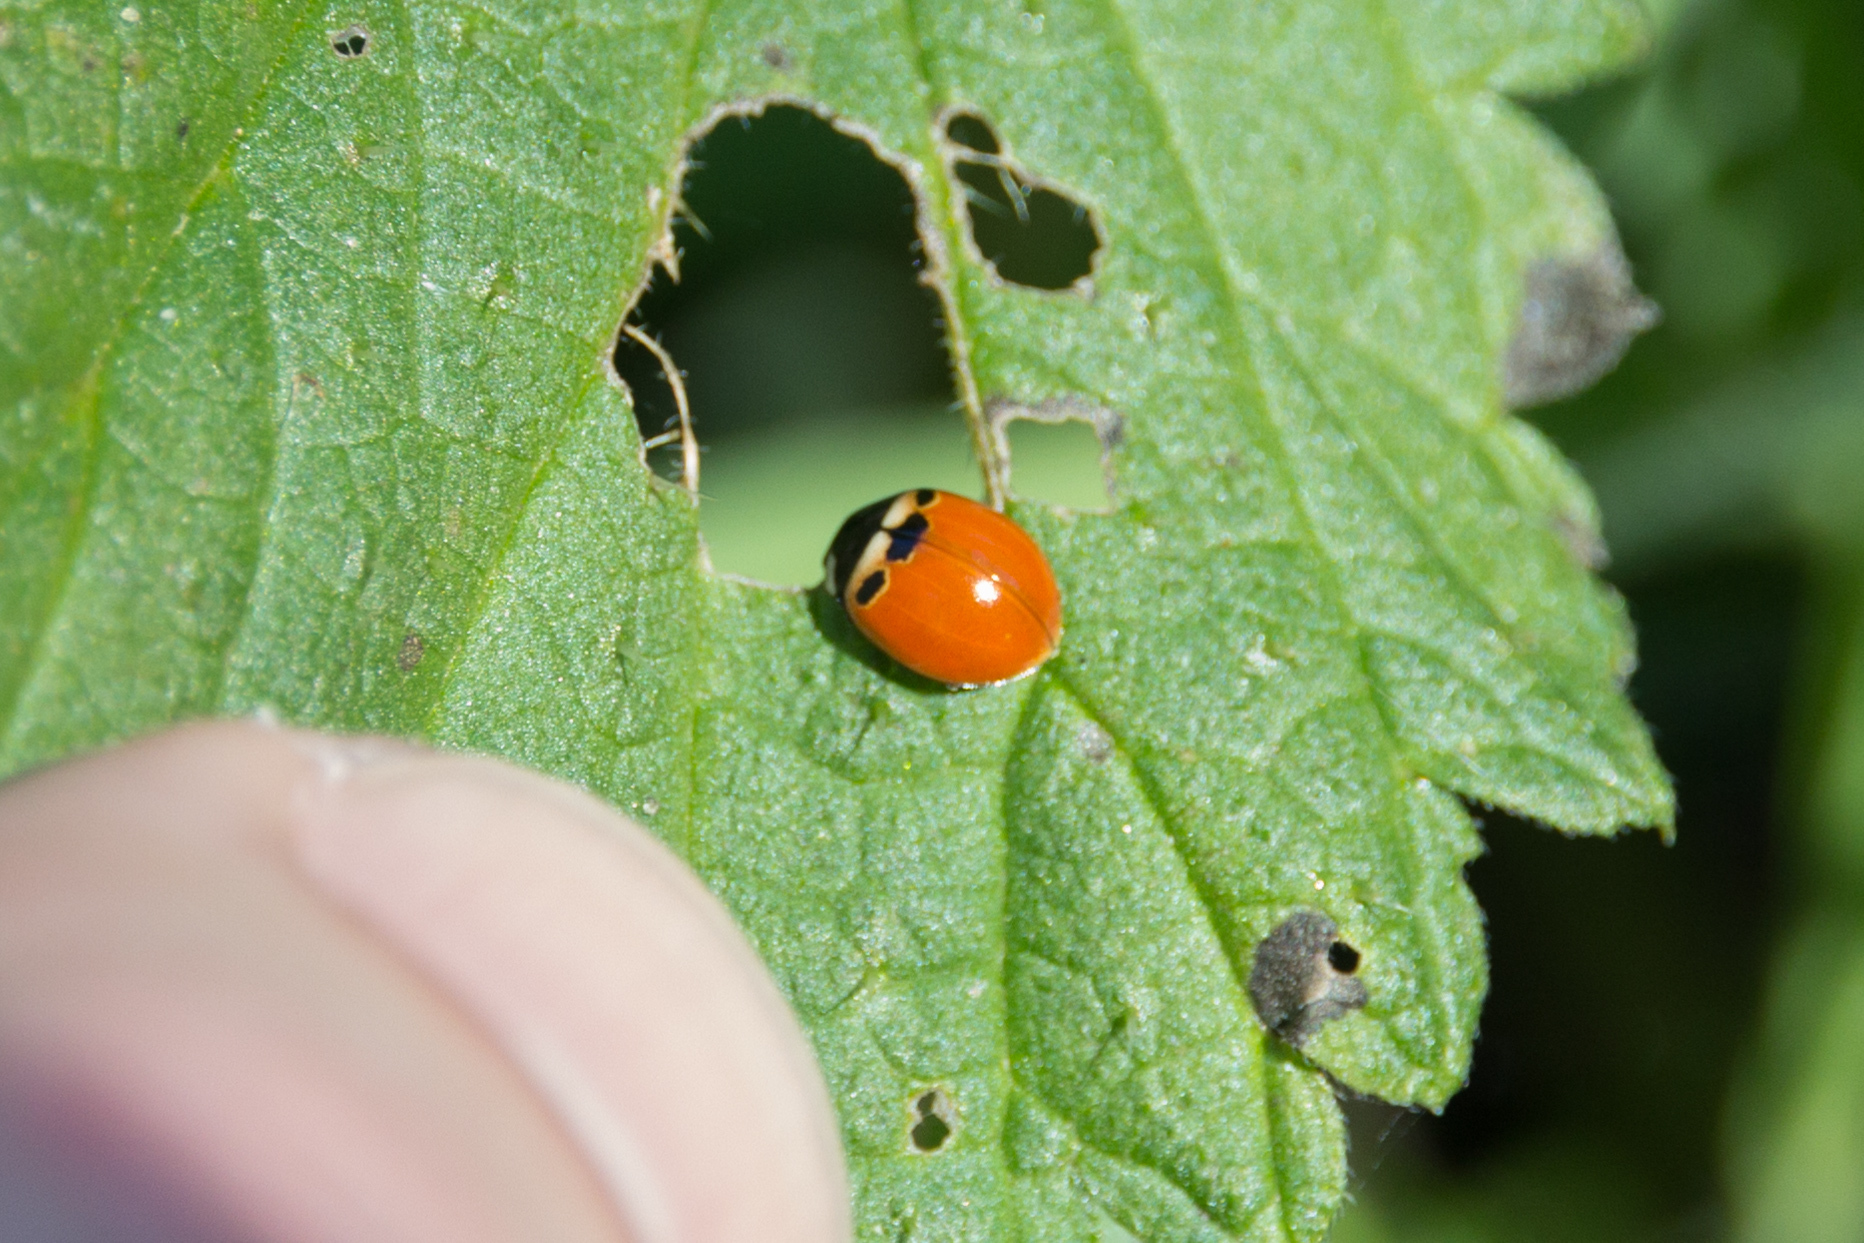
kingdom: Animalia
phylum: Arthropoda
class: Insecta
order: Coleoptera
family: Coccinellidae
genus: Coccinella
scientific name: Coccinella trifasciata
